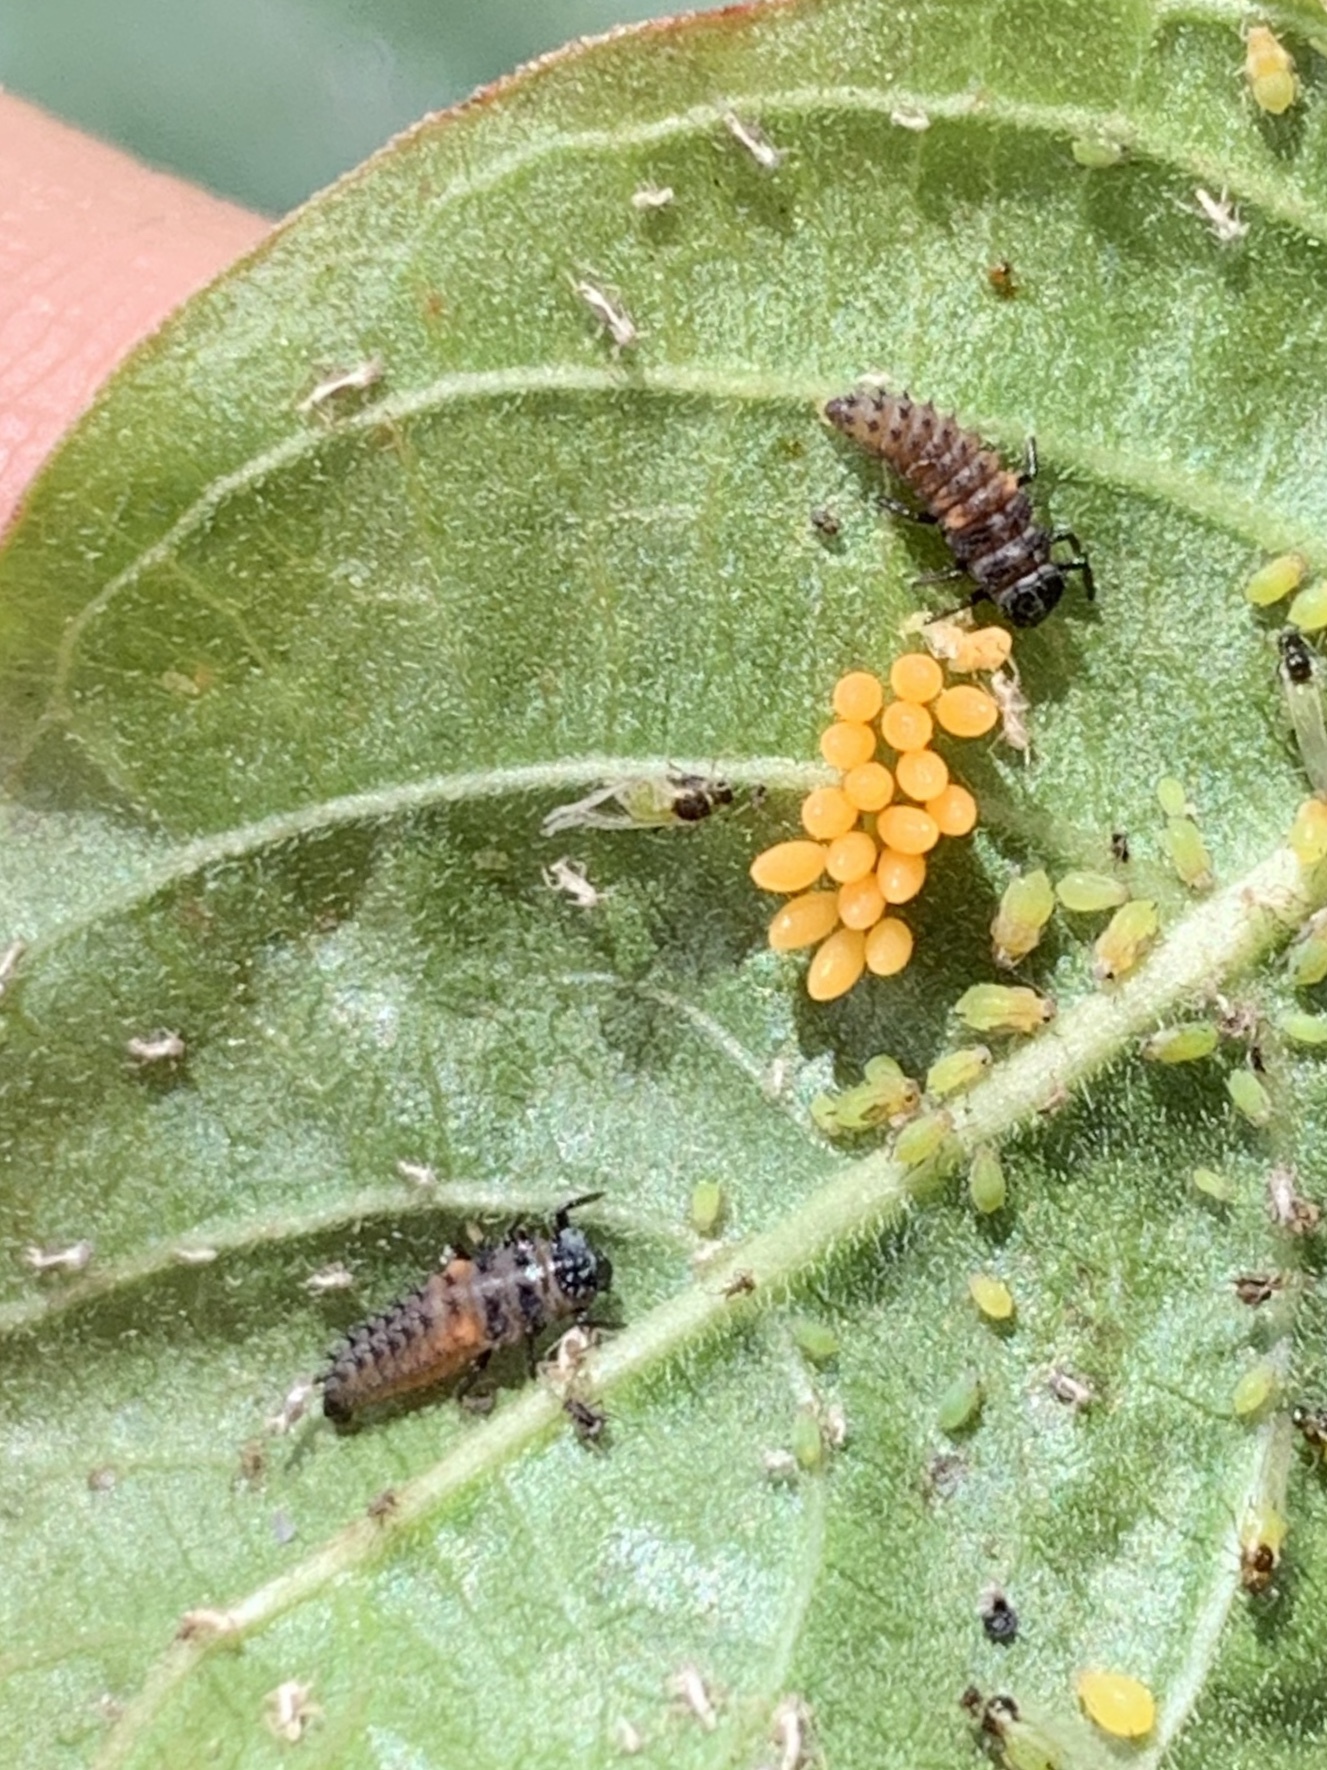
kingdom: Animalia
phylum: Arthropoda
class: Insecta
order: Coleoptera
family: Coccinellidae
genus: Harmonia
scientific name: Harmonia axyridis
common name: Harlequin ladybird
